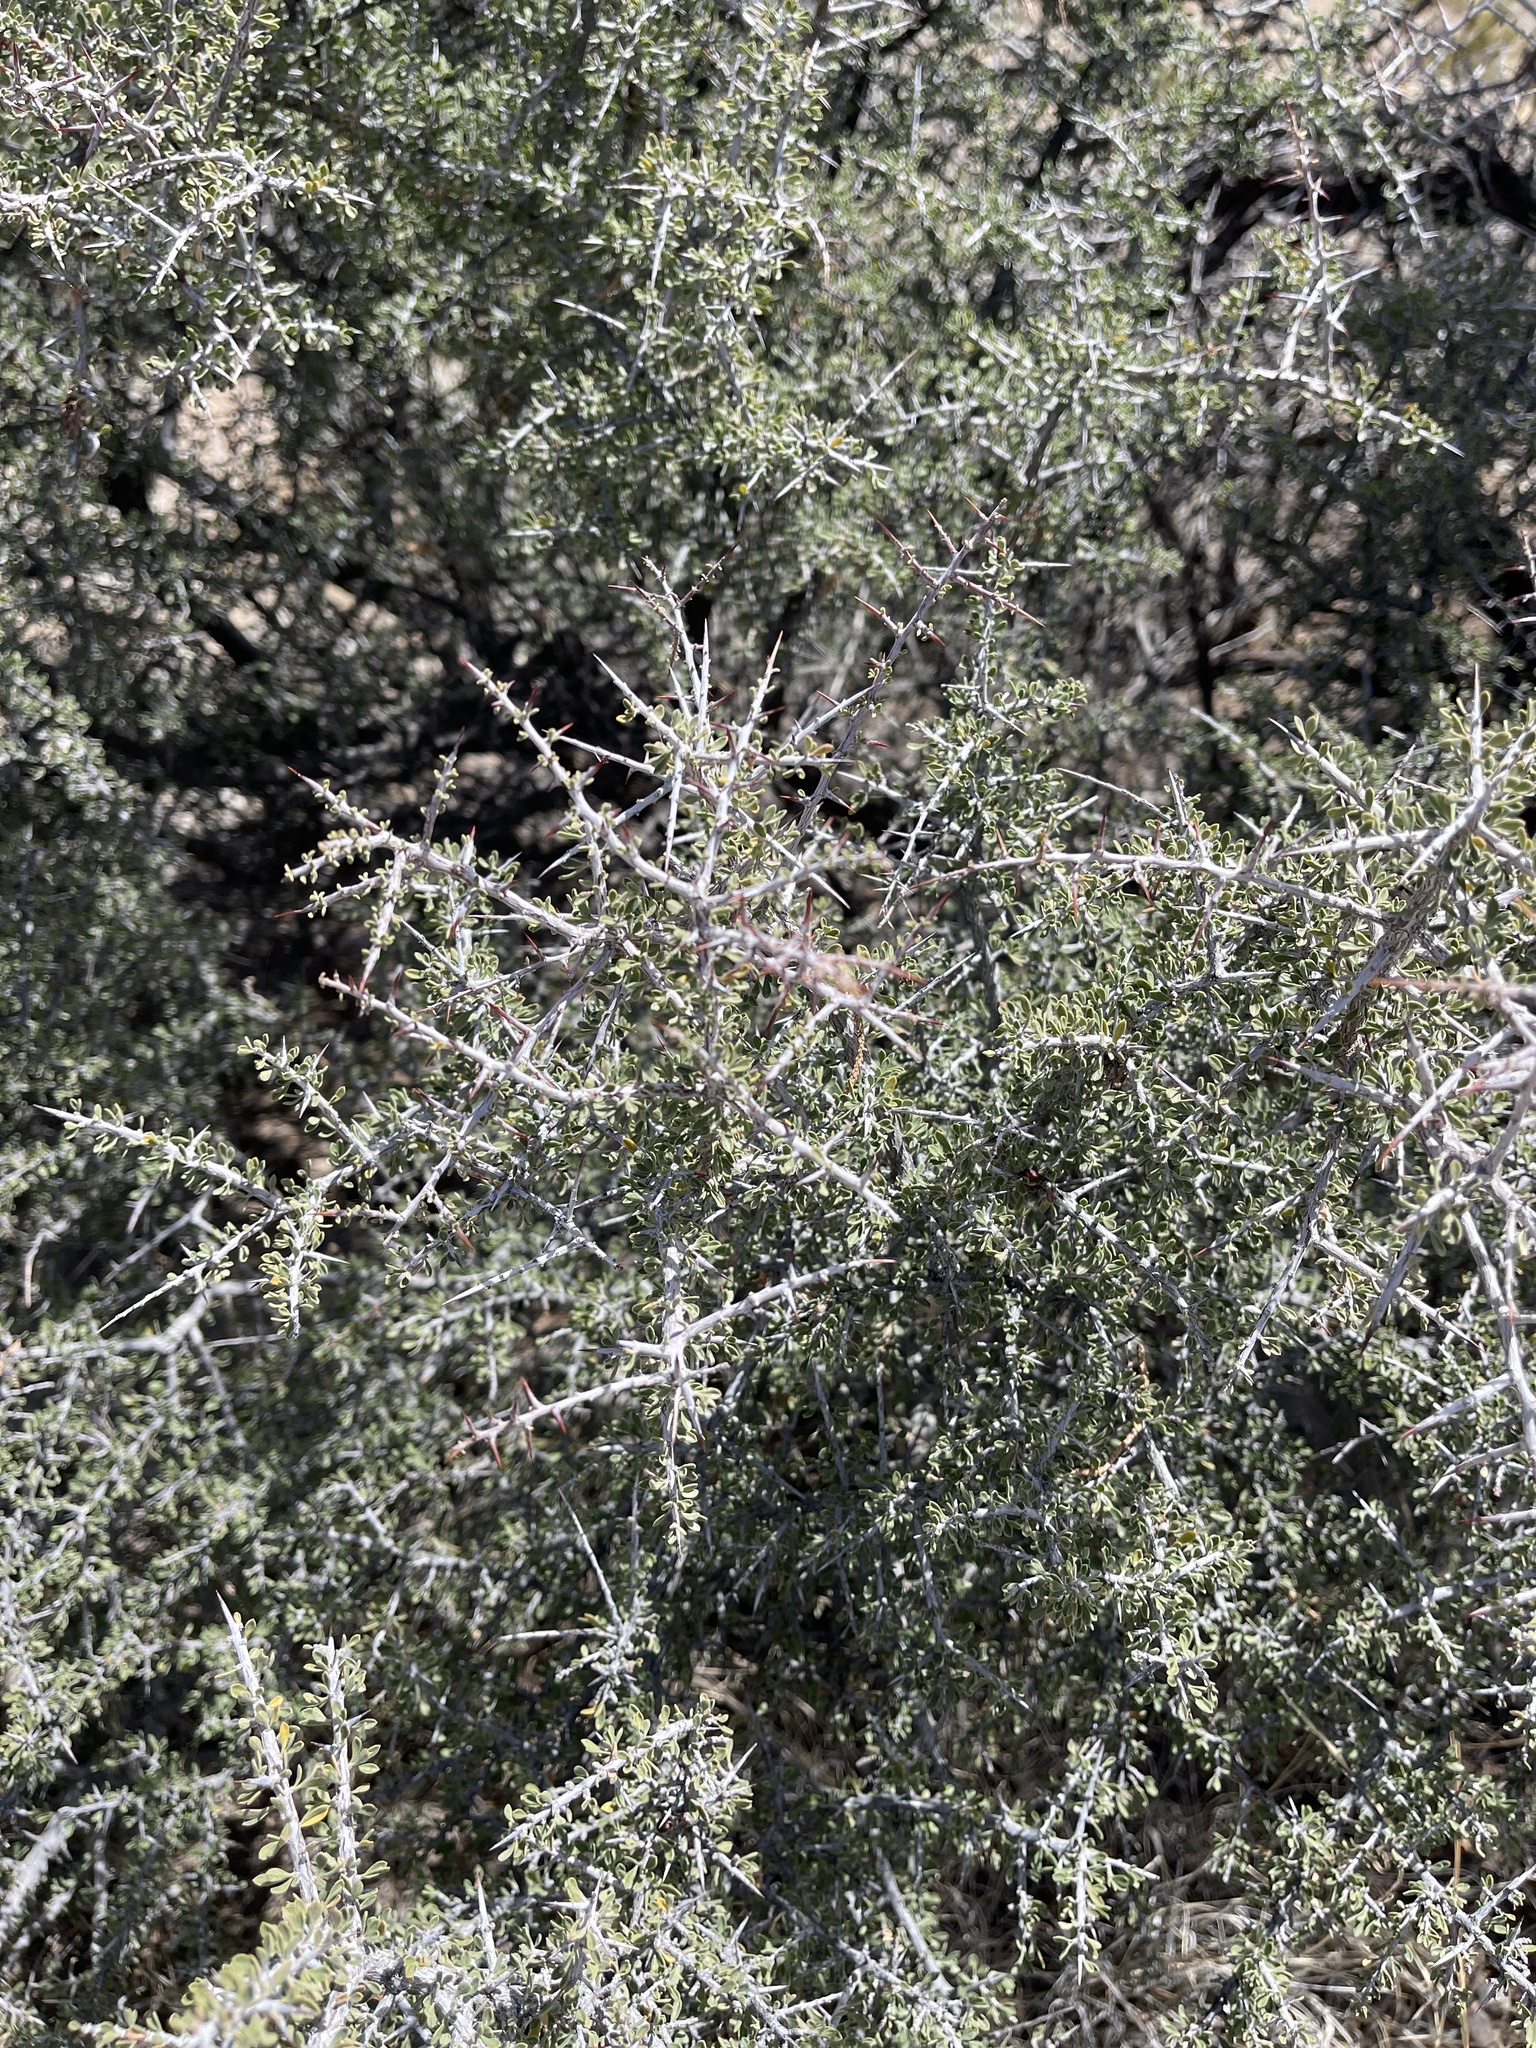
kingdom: Plantae
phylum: Tracheophyta
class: Magnoliopsida
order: Rosales
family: Rhamnaceae
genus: Condalia
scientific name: Condalia warnockii
